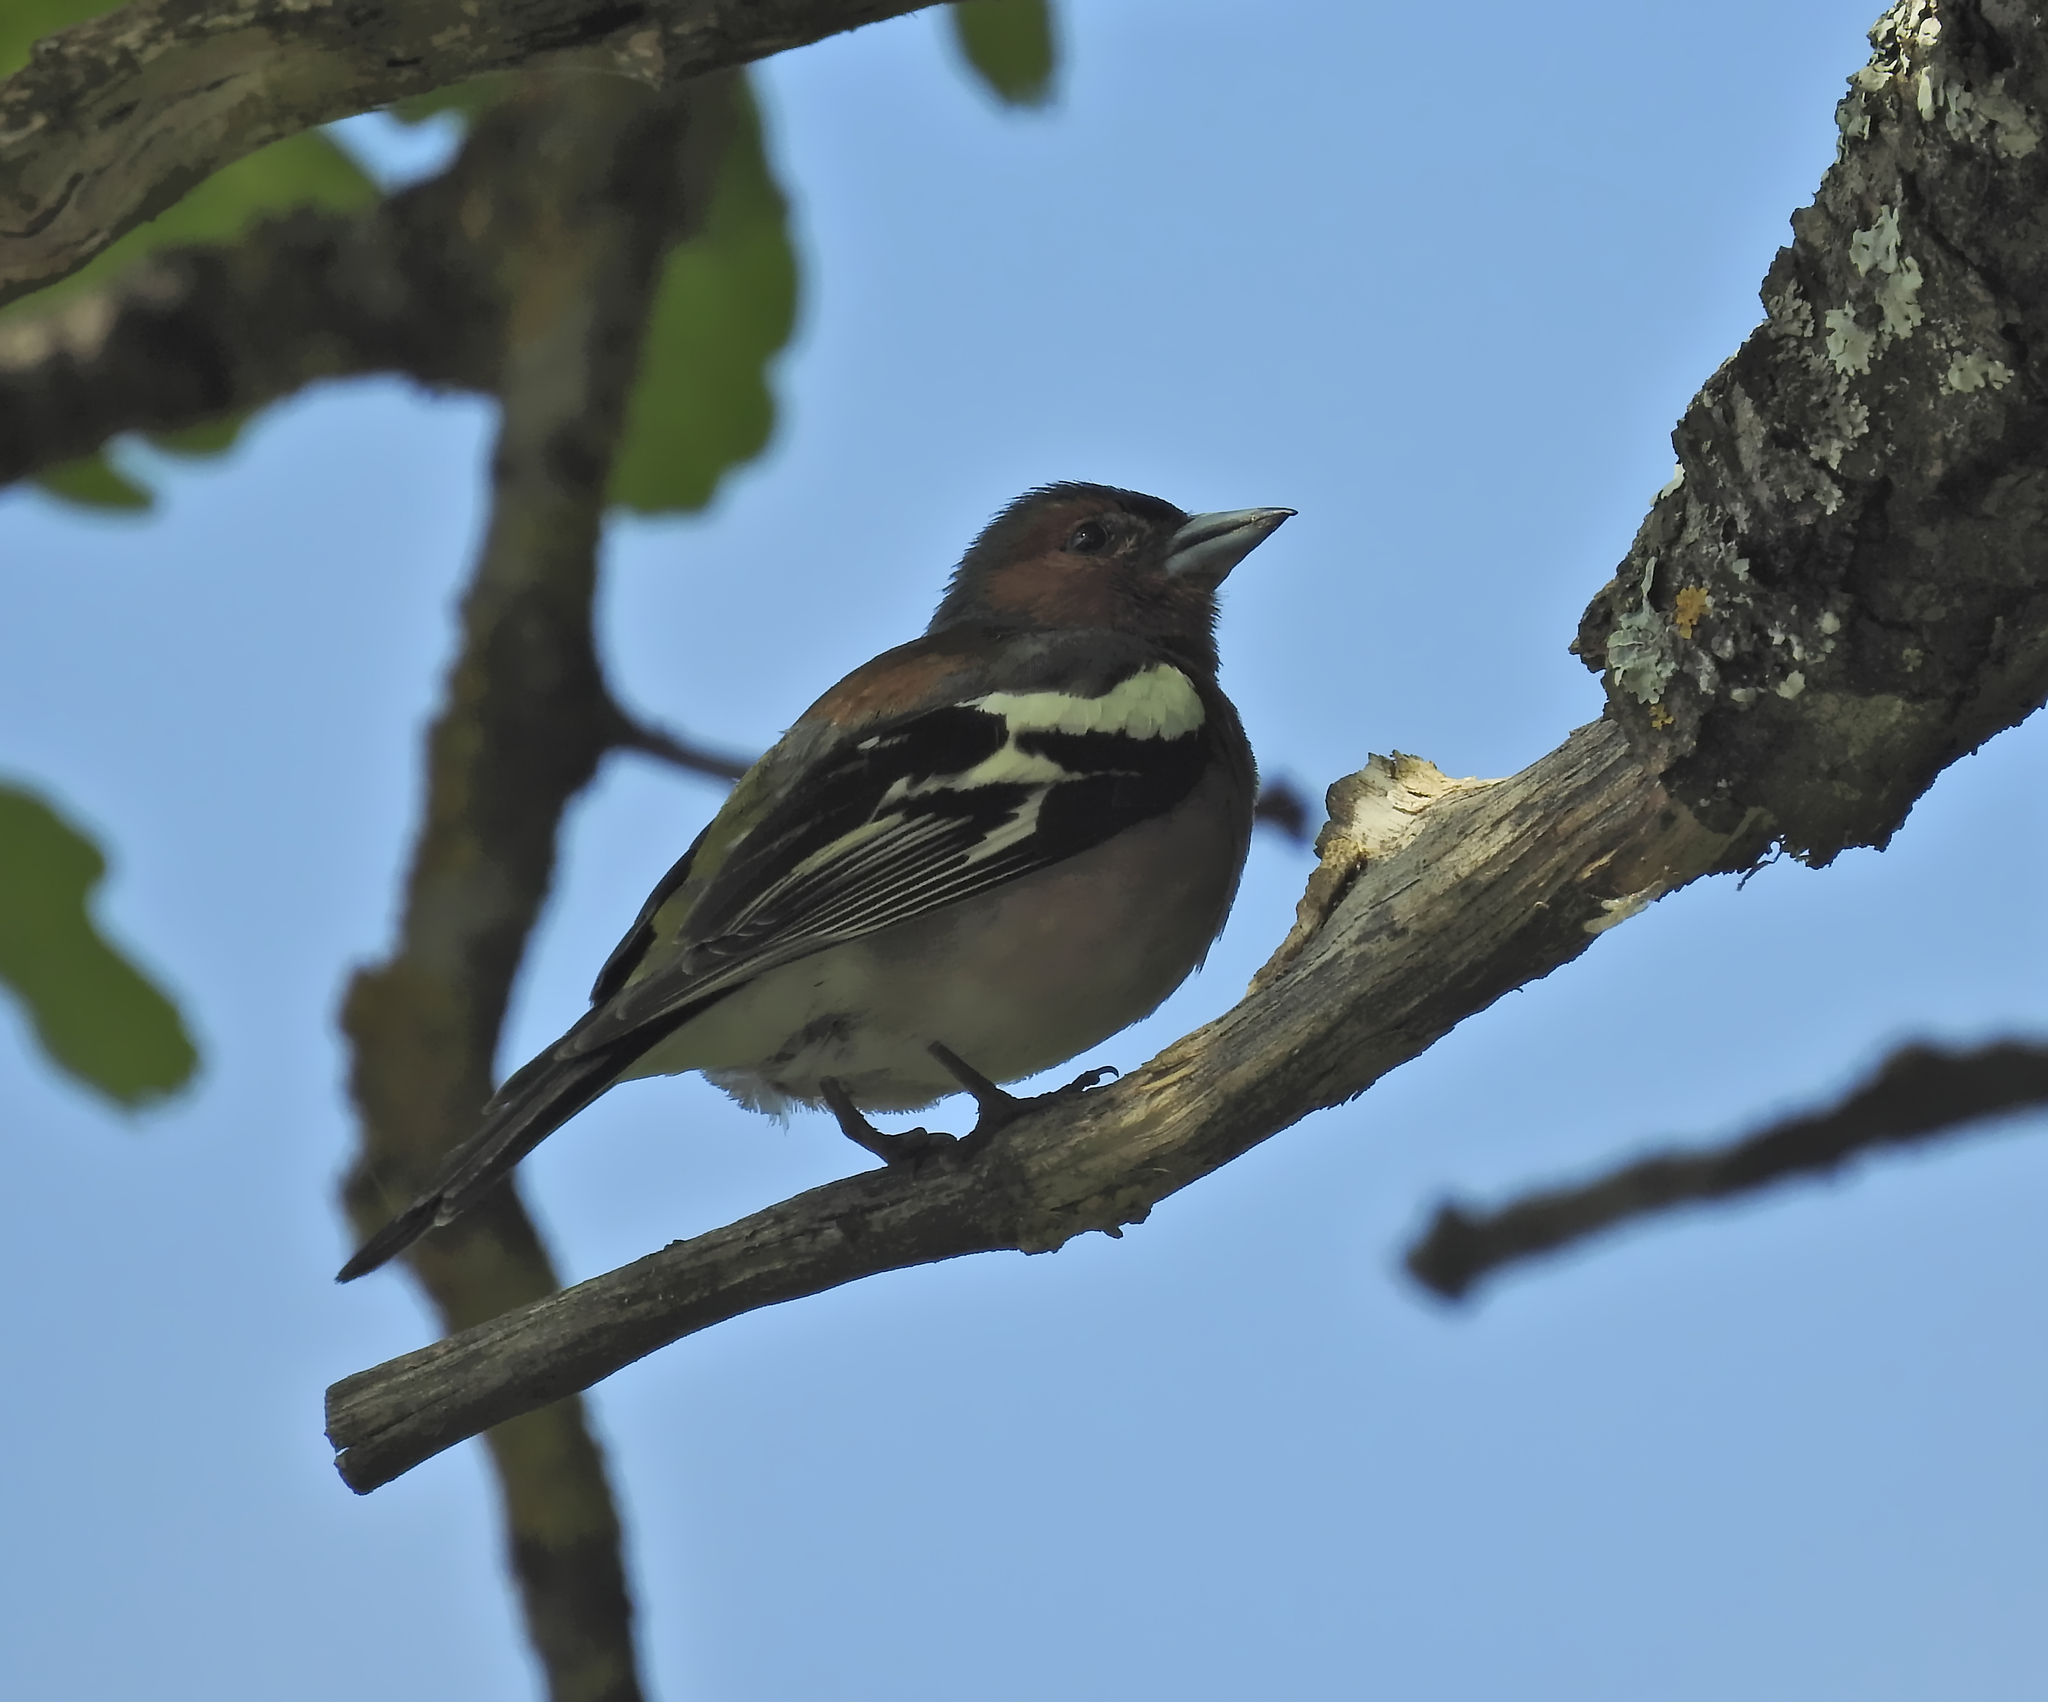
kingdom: Animalia
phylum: Chordata
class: Aves
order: Passeriformes
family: Fringillidae
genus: Fringilla
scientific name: Fringilla coelebs
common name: Common chaffinch
